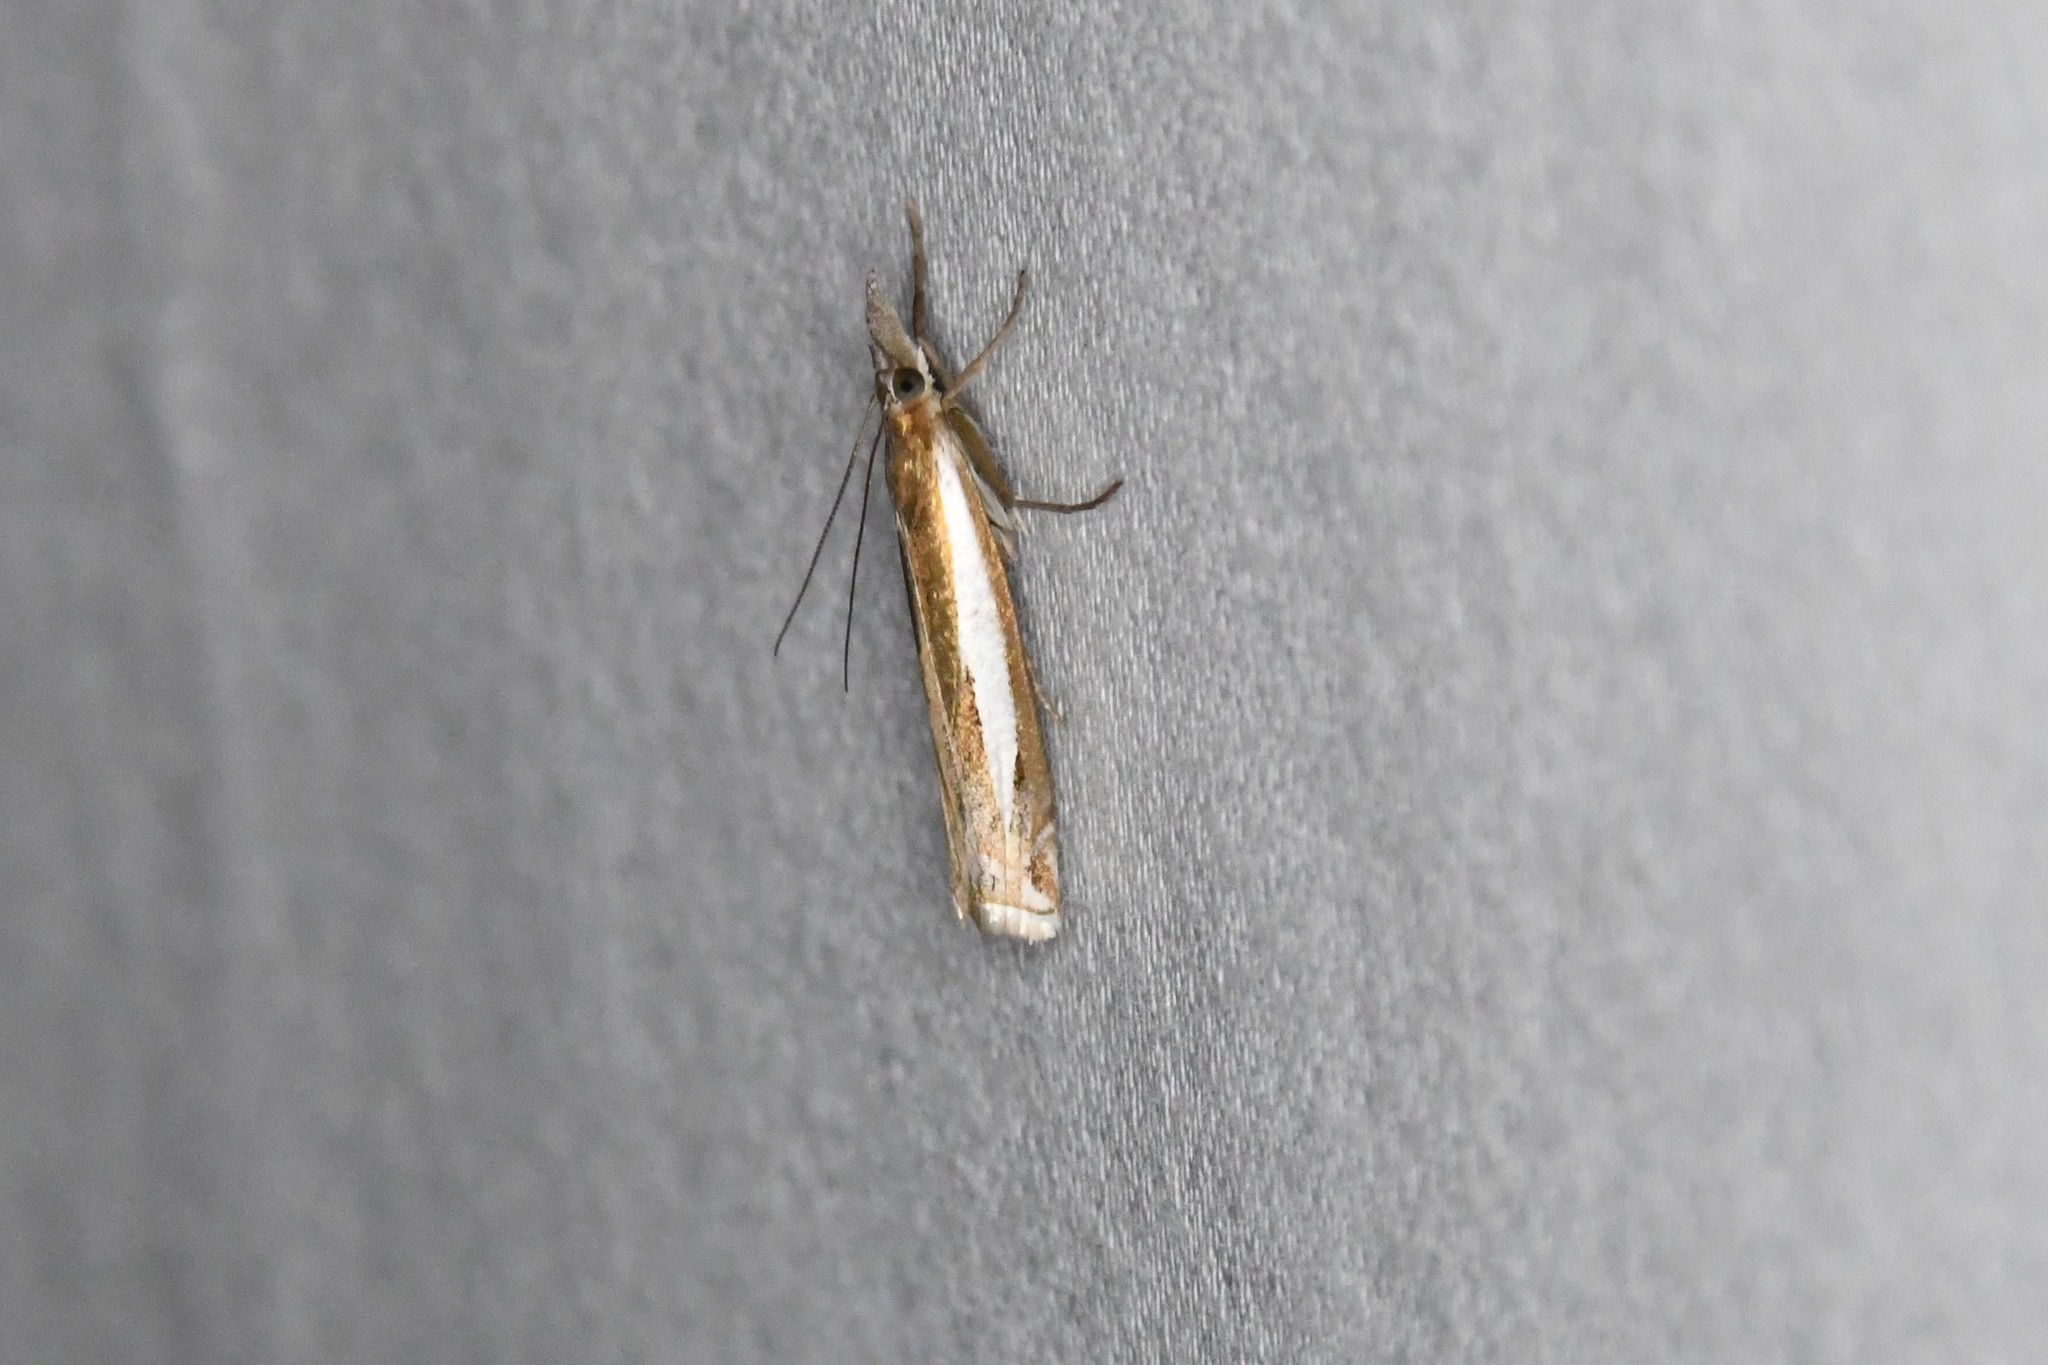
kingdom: Animalia
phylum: Arthropoda
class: Insecta
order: Lepidoptera
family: Crambidae
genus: Crambus
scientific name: Crambus praefectellus
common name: Common grass-veneer
